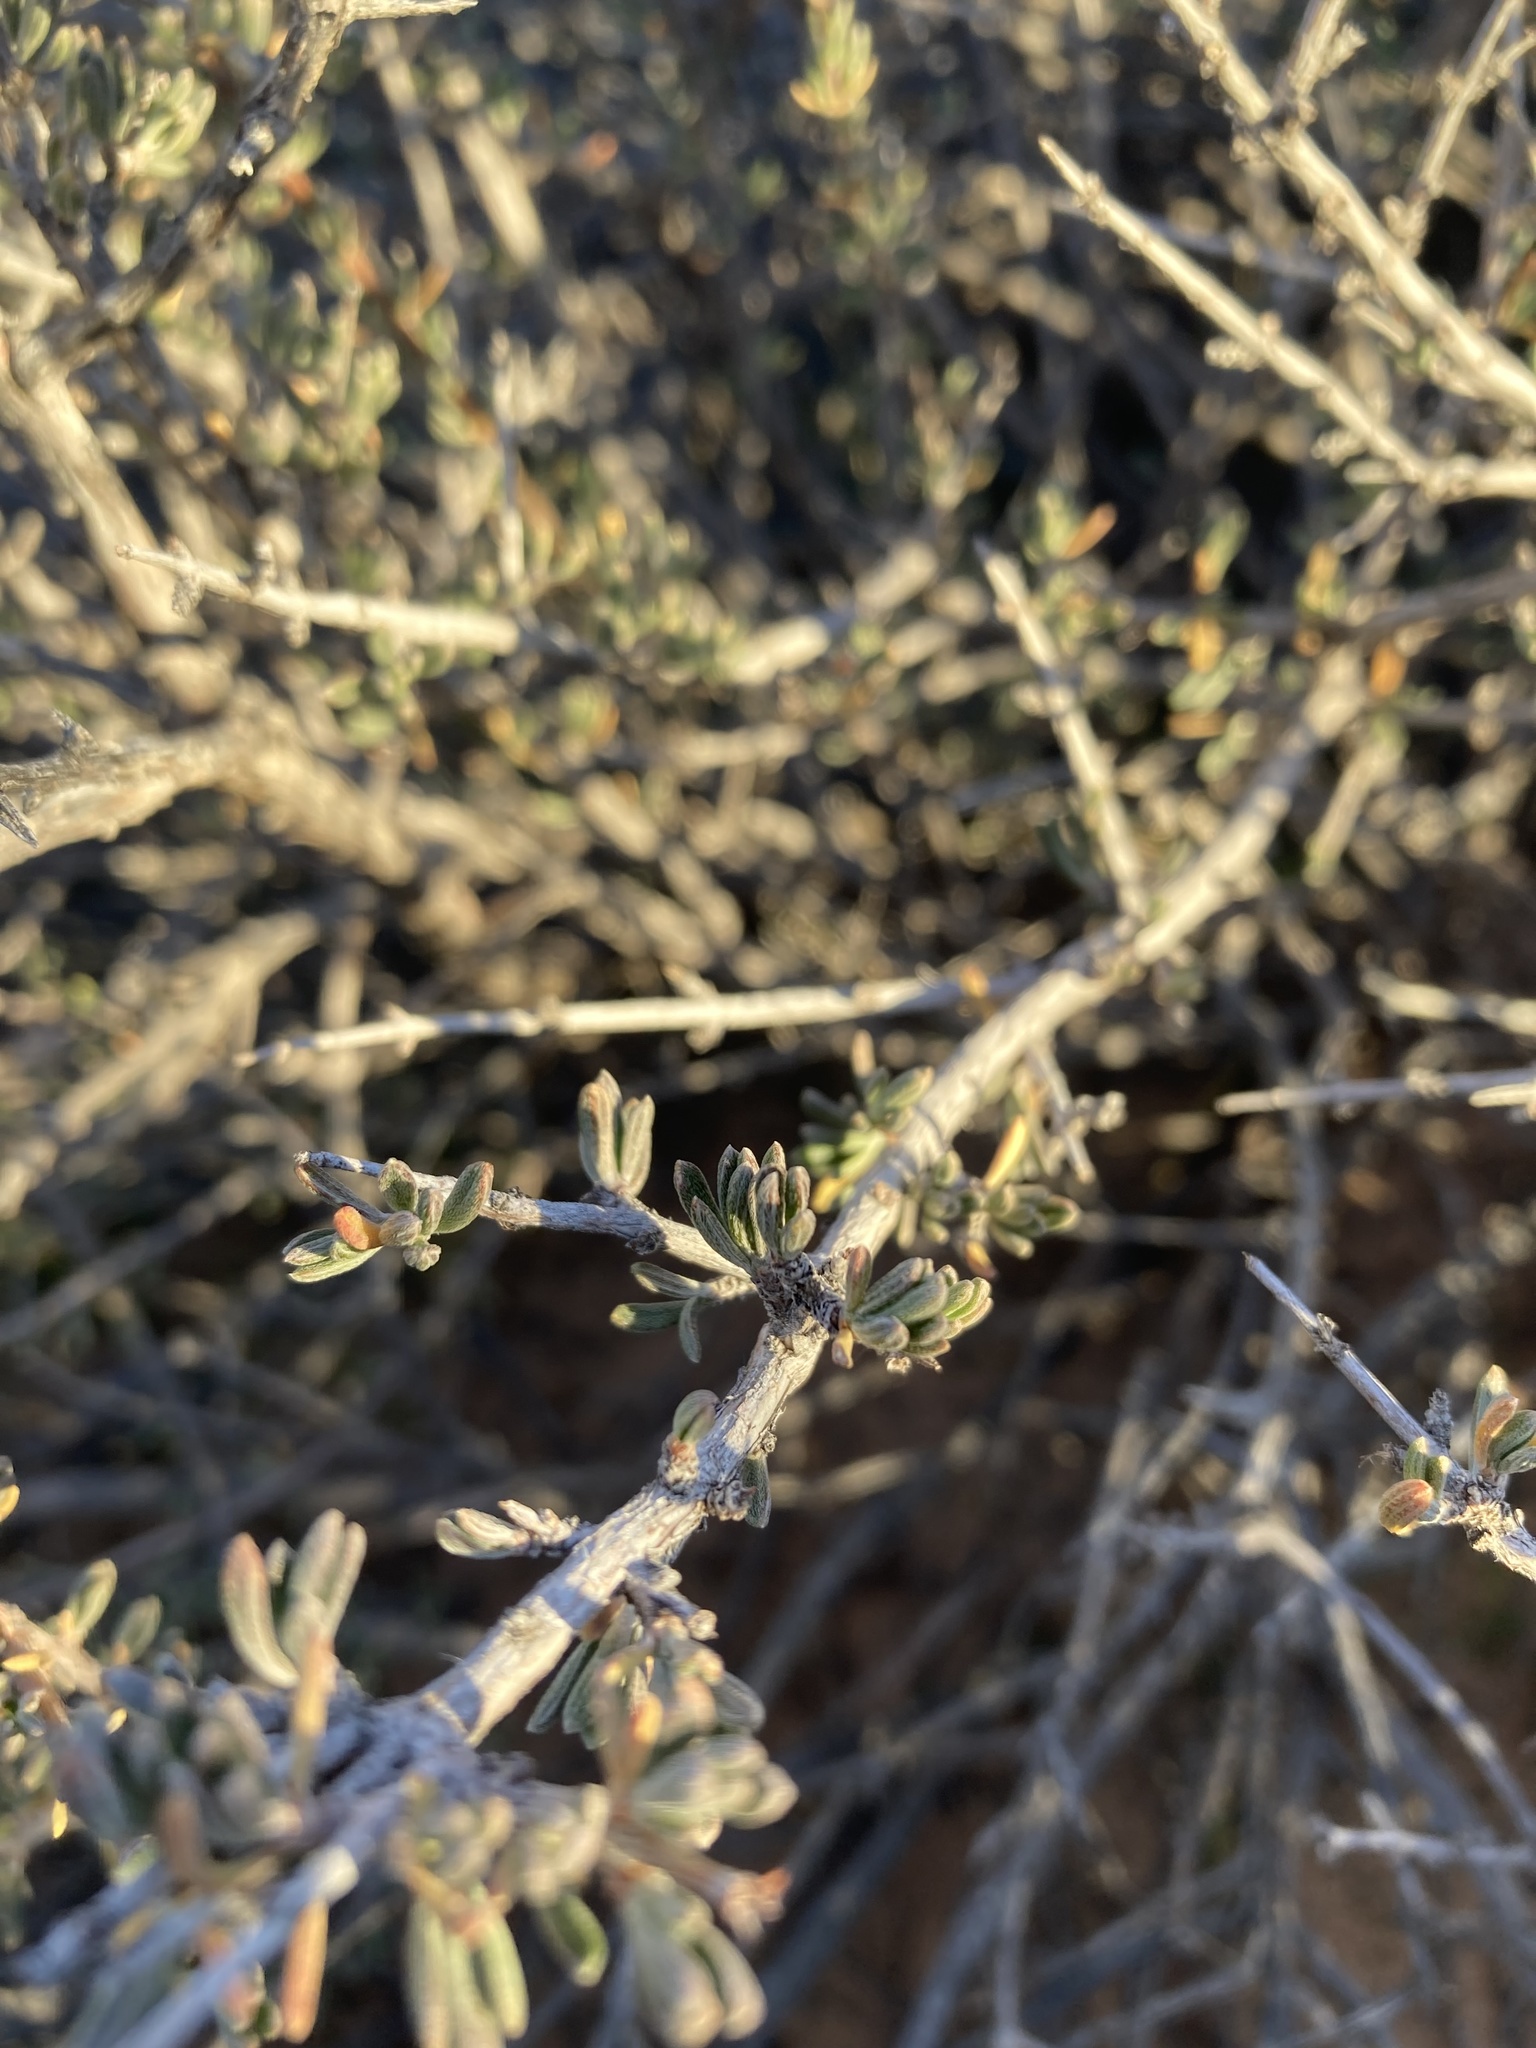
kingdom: Plantae
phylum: Tracheophyta
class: Magnoliopsida
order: Rosales
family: Rosaceae
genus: Coleogyne
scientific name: Coleogyne ramosissima
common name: Blackbrush
